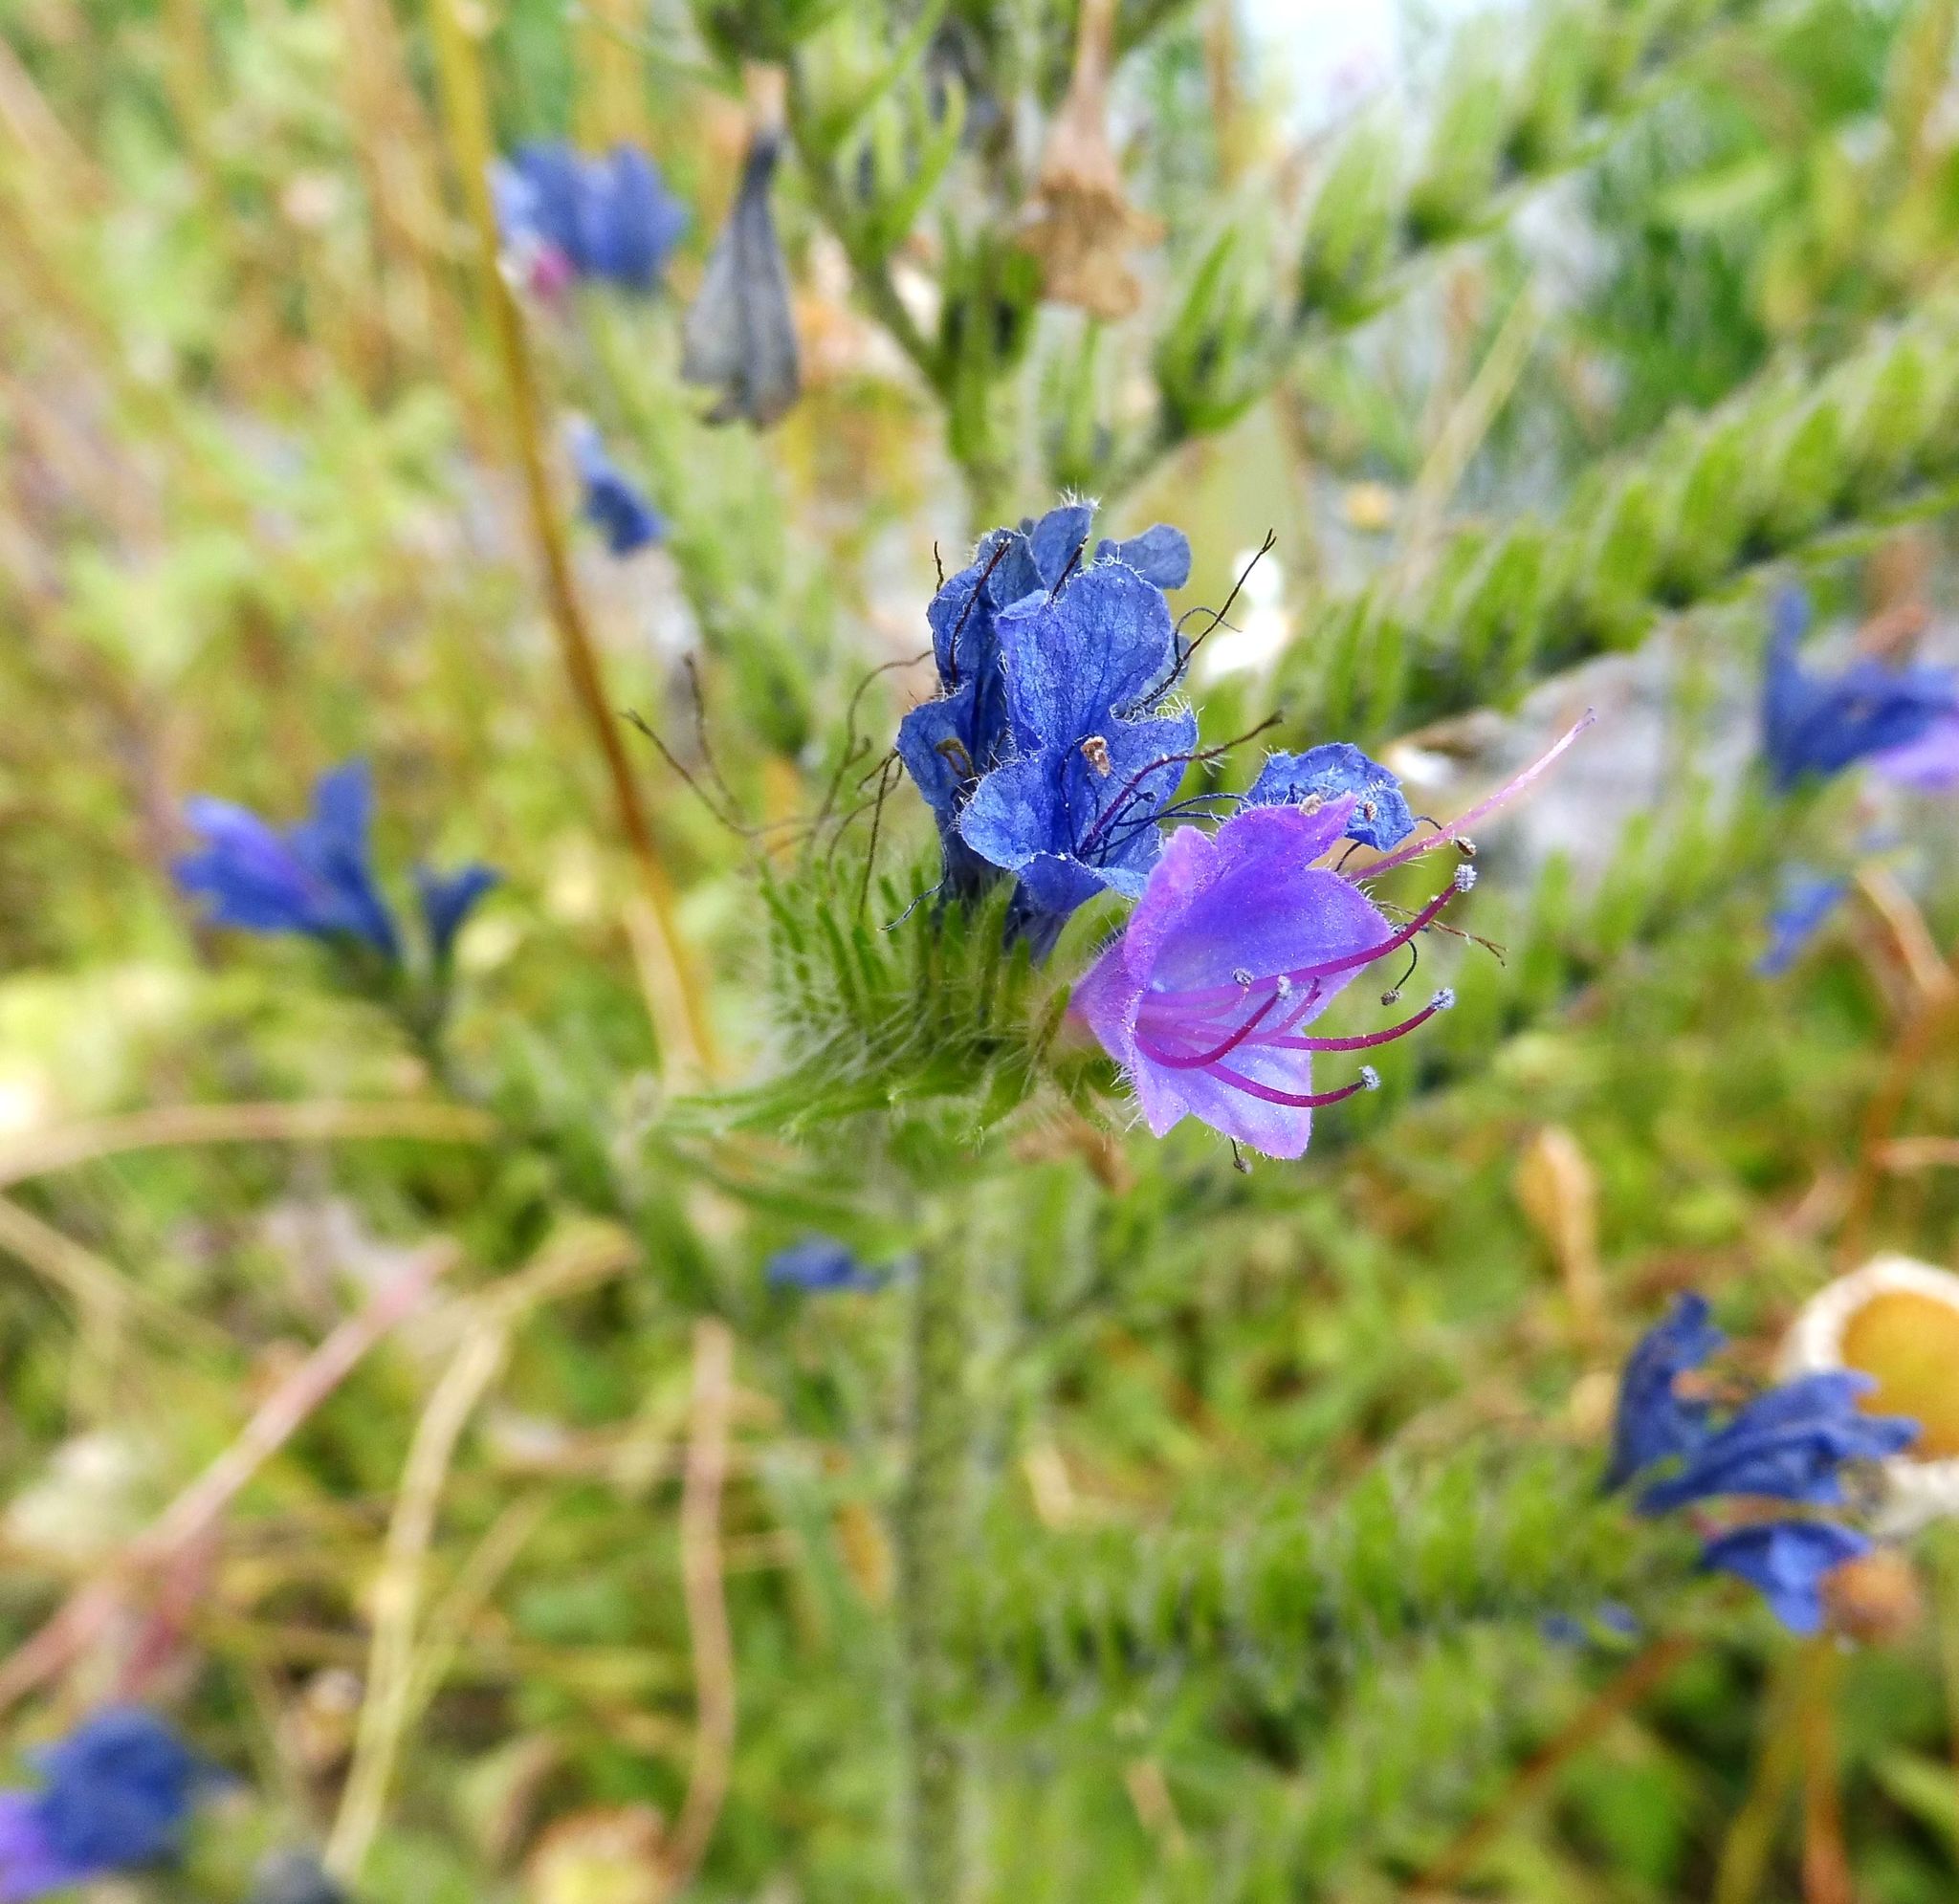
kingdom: Plantae
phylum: Tracheophyta
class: Magnoliopsida
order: Boraginales
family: Boraginaceae
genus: Echium
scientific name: Echium vulgare
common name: Common viper's bugloss
